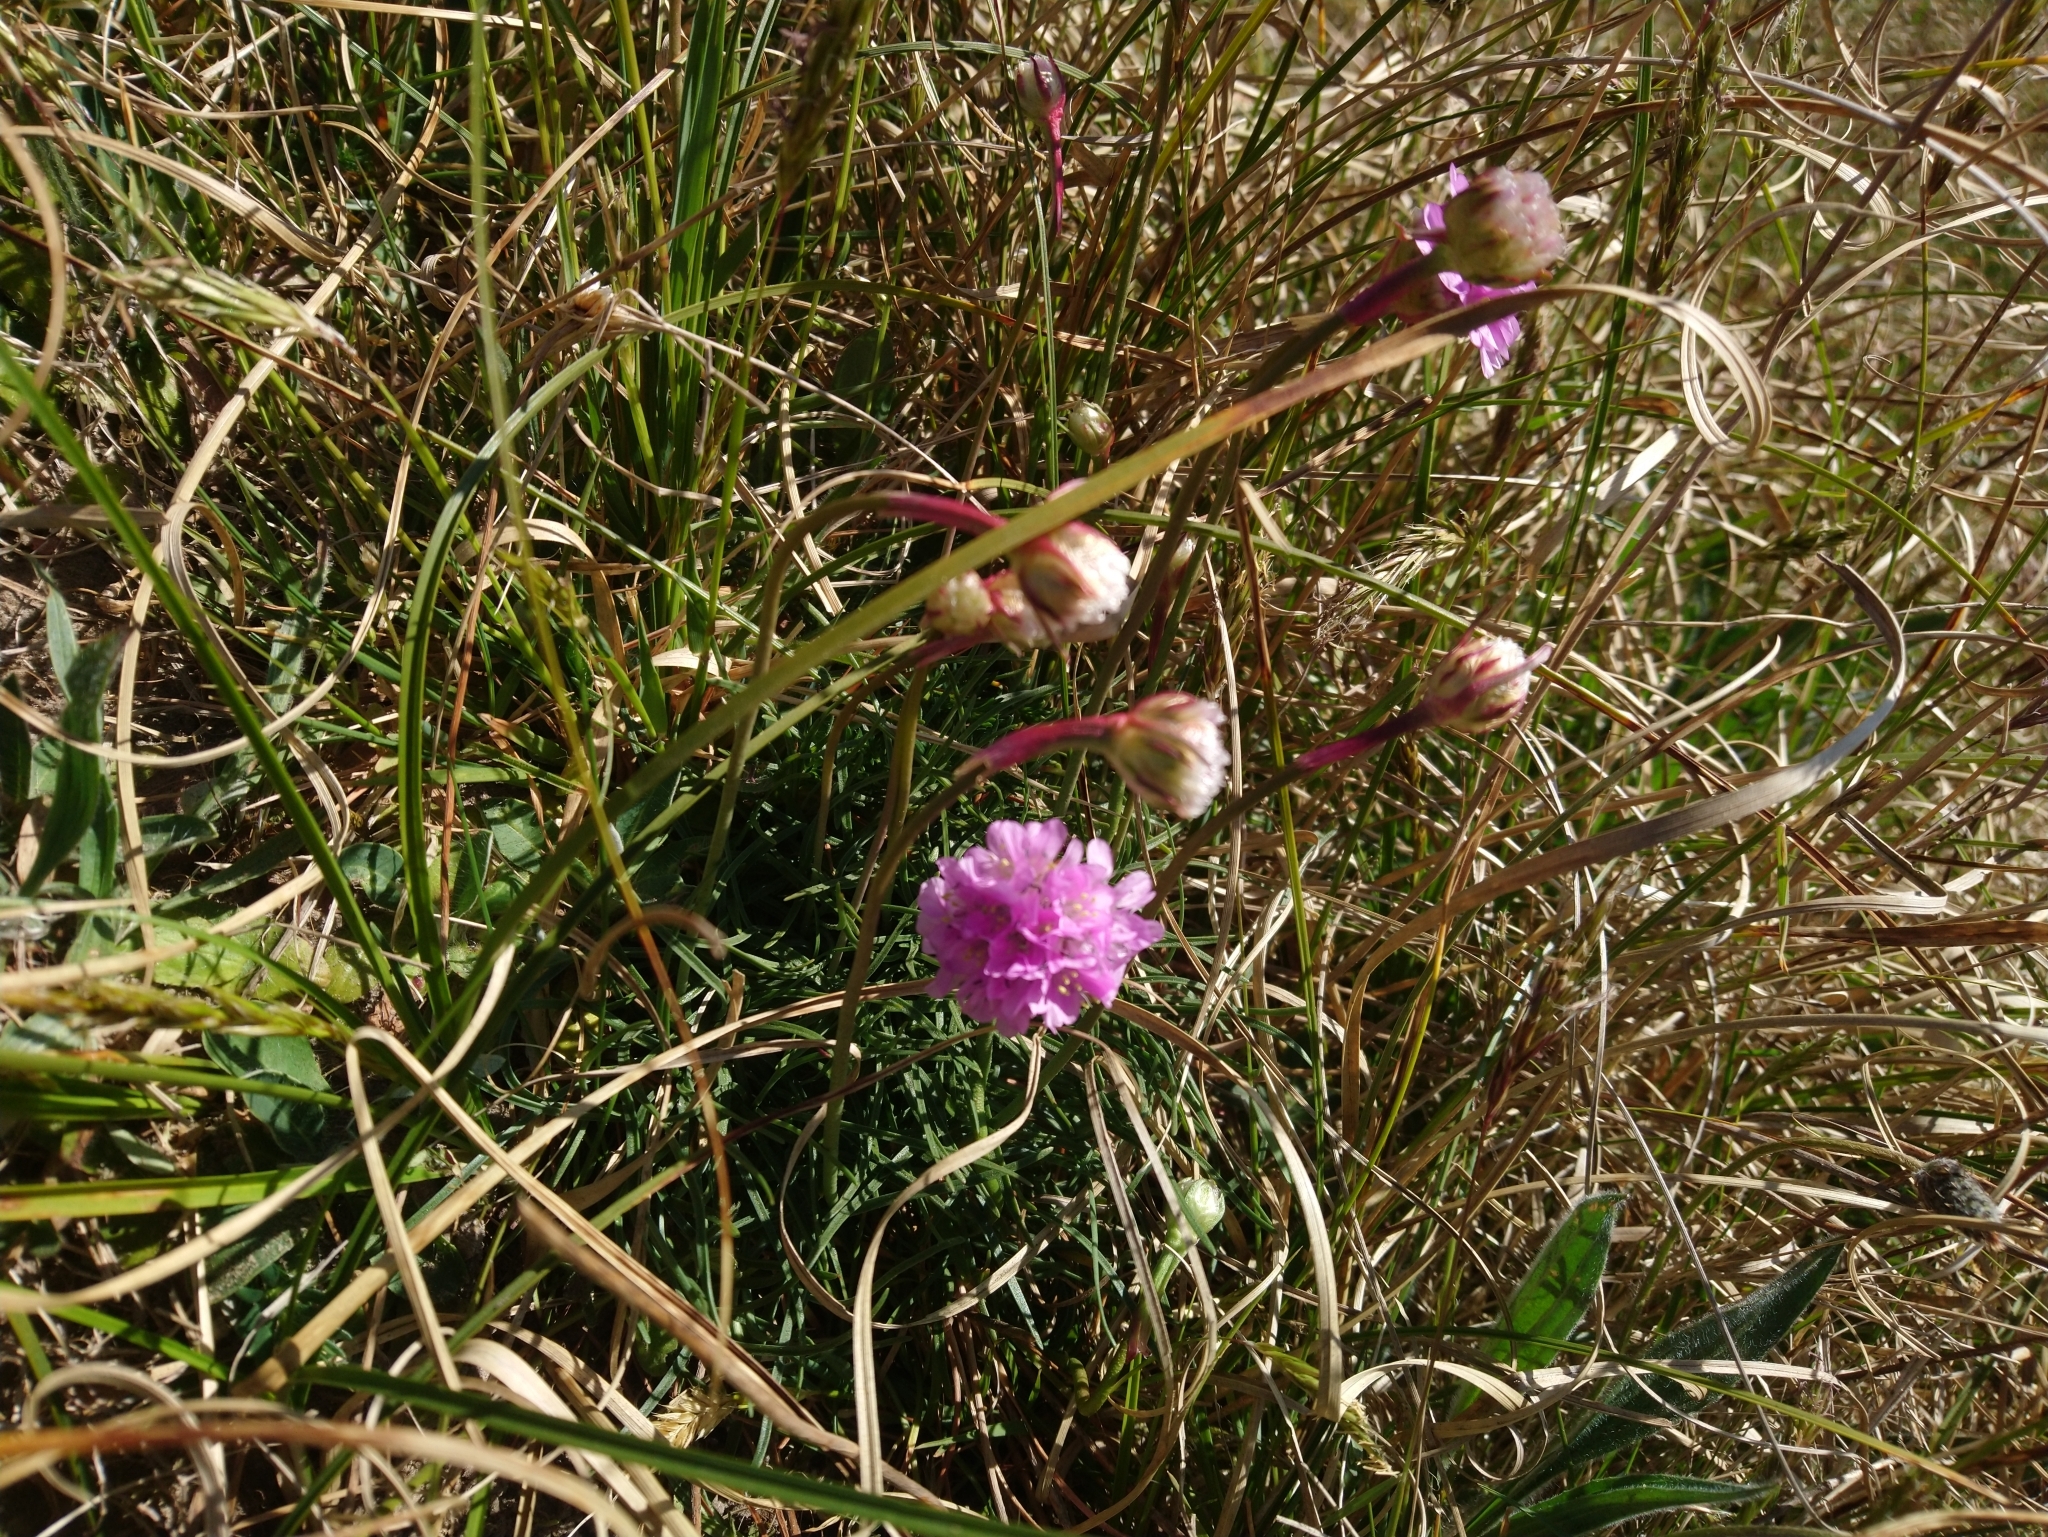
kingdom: Plantae
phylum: Tracheophyta
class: Magnoliopsida
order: Caryophyllales
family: Plumbaginaceae
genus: Armeria
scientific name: Armeria maritima
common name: Thrift
